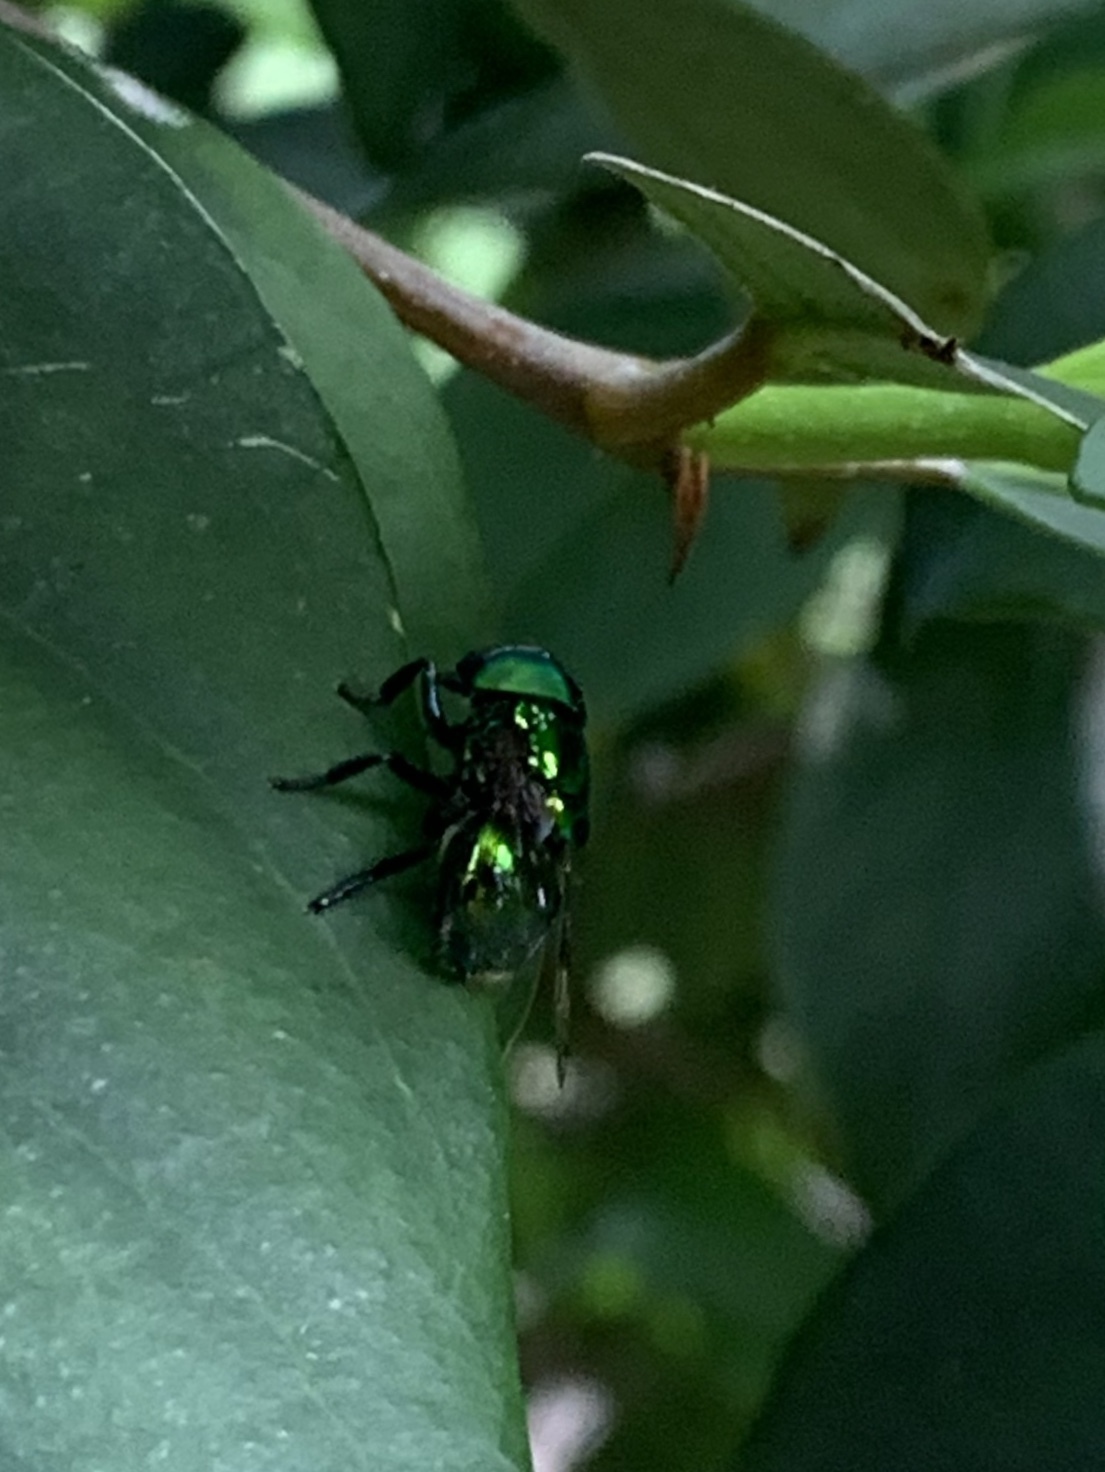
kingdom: Animalia
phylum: Arthropoda
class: Insecta
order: Diptera
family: Syrphidae
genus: Ornidia
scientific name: Ornidia obesa
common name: Syrphid fly
